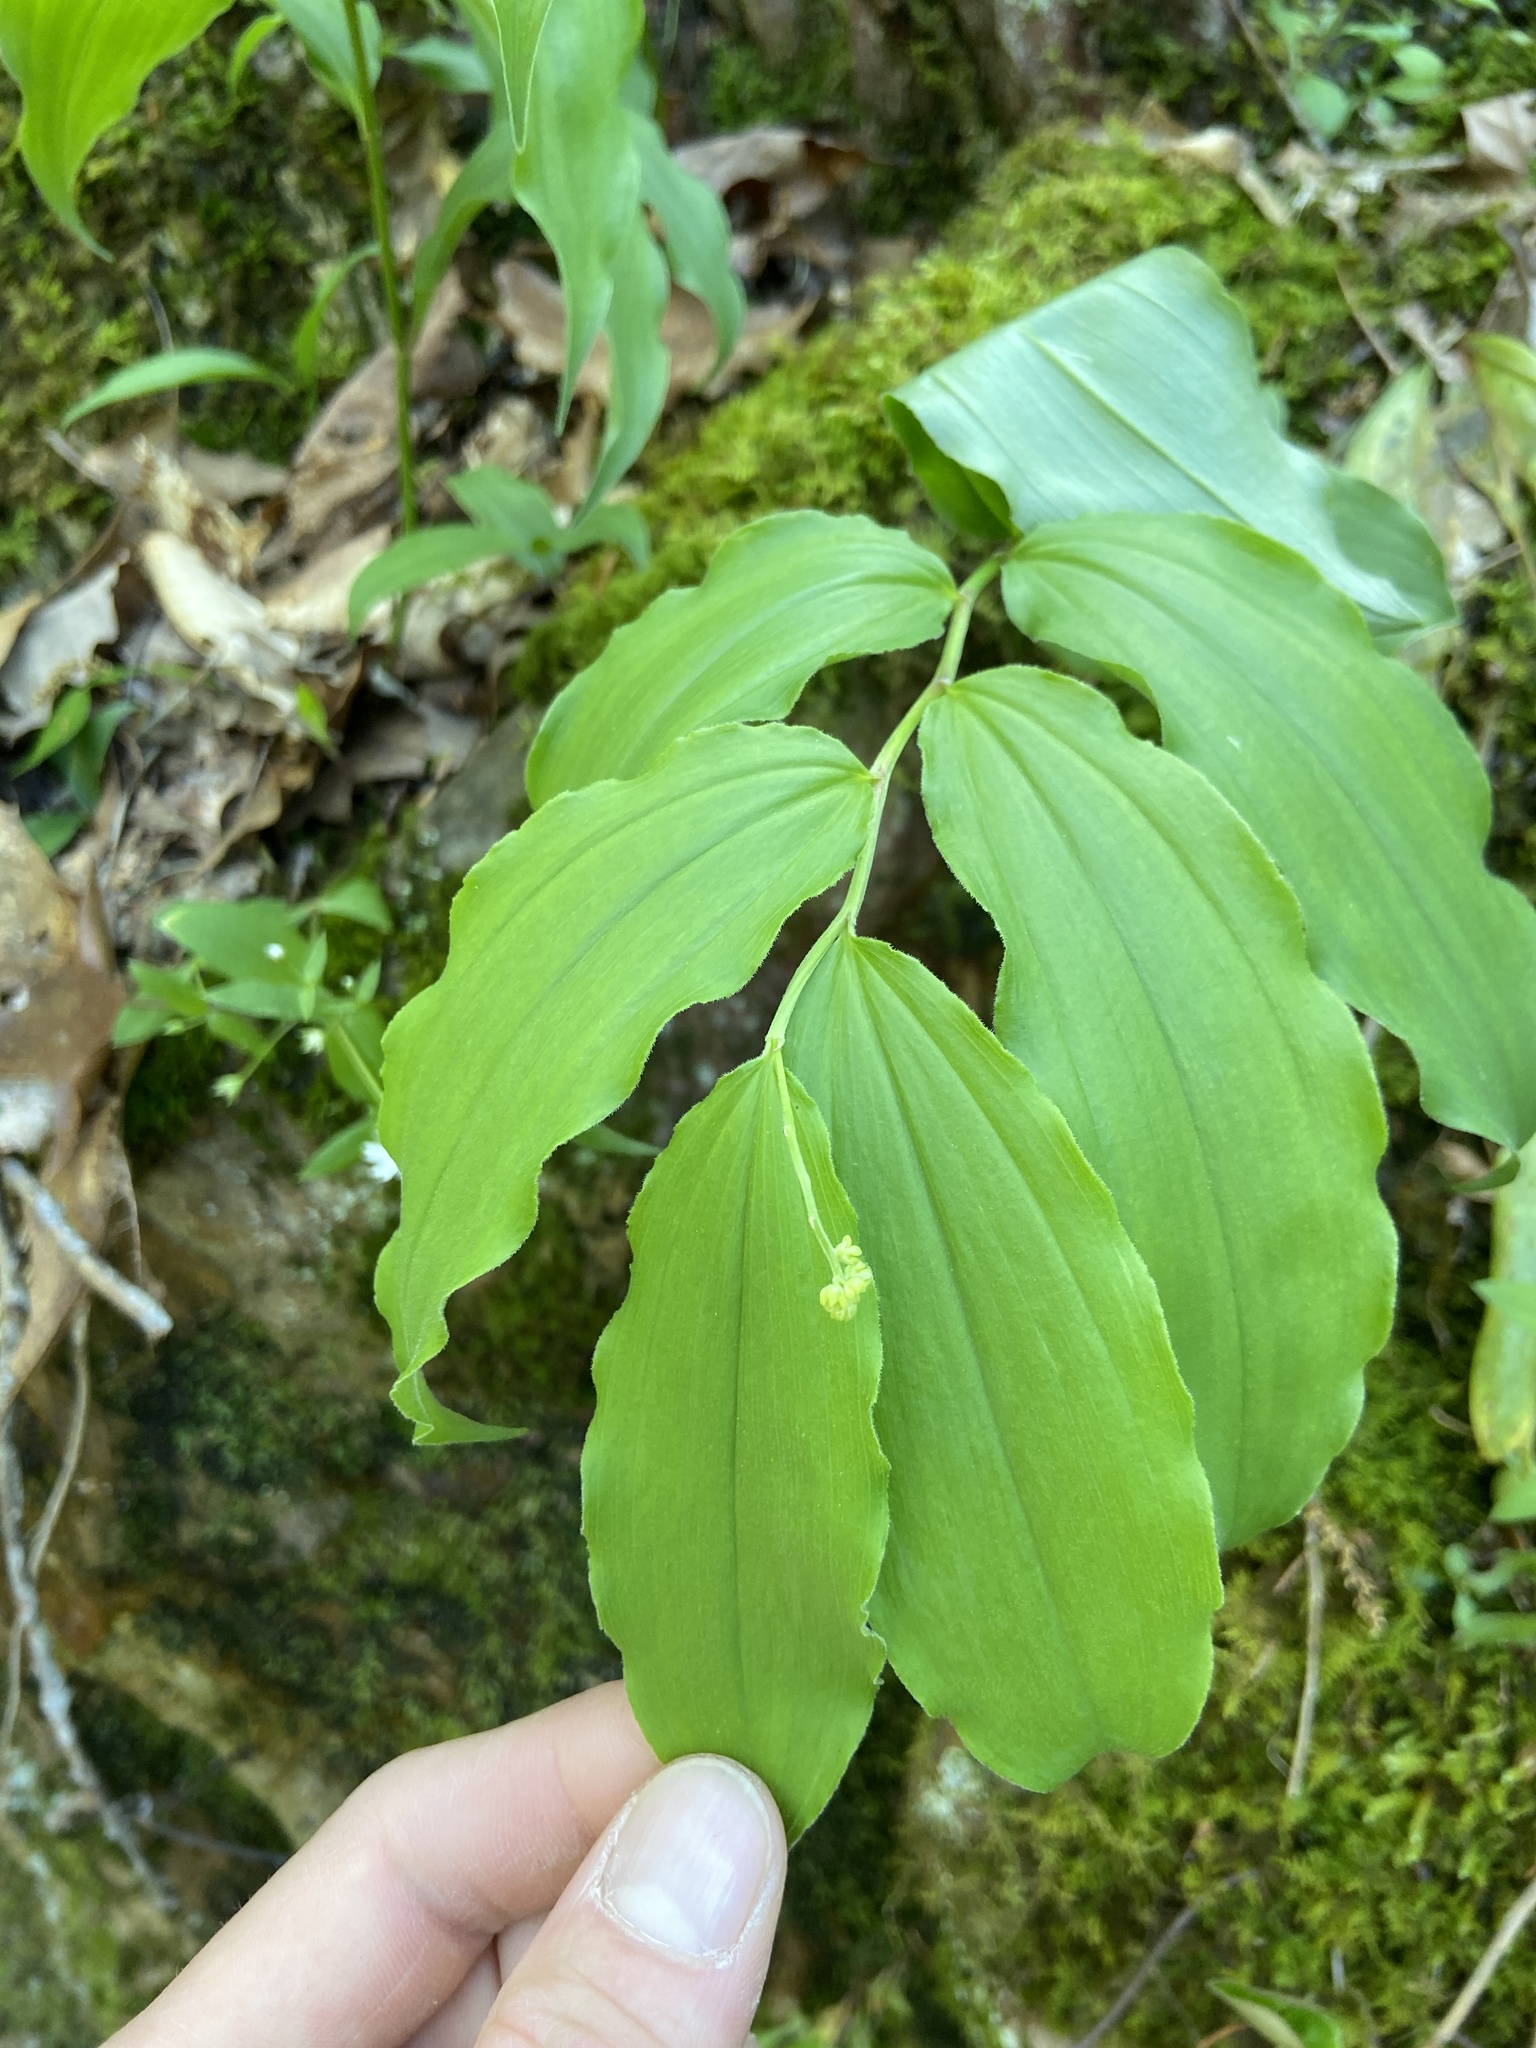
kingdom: Plantae
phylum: Tracheophyta
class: Liliopsida
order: Asparagales
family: Asparagaceae
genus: Maianthemum
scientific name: Maianthemum racemosum
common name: False spikenard
